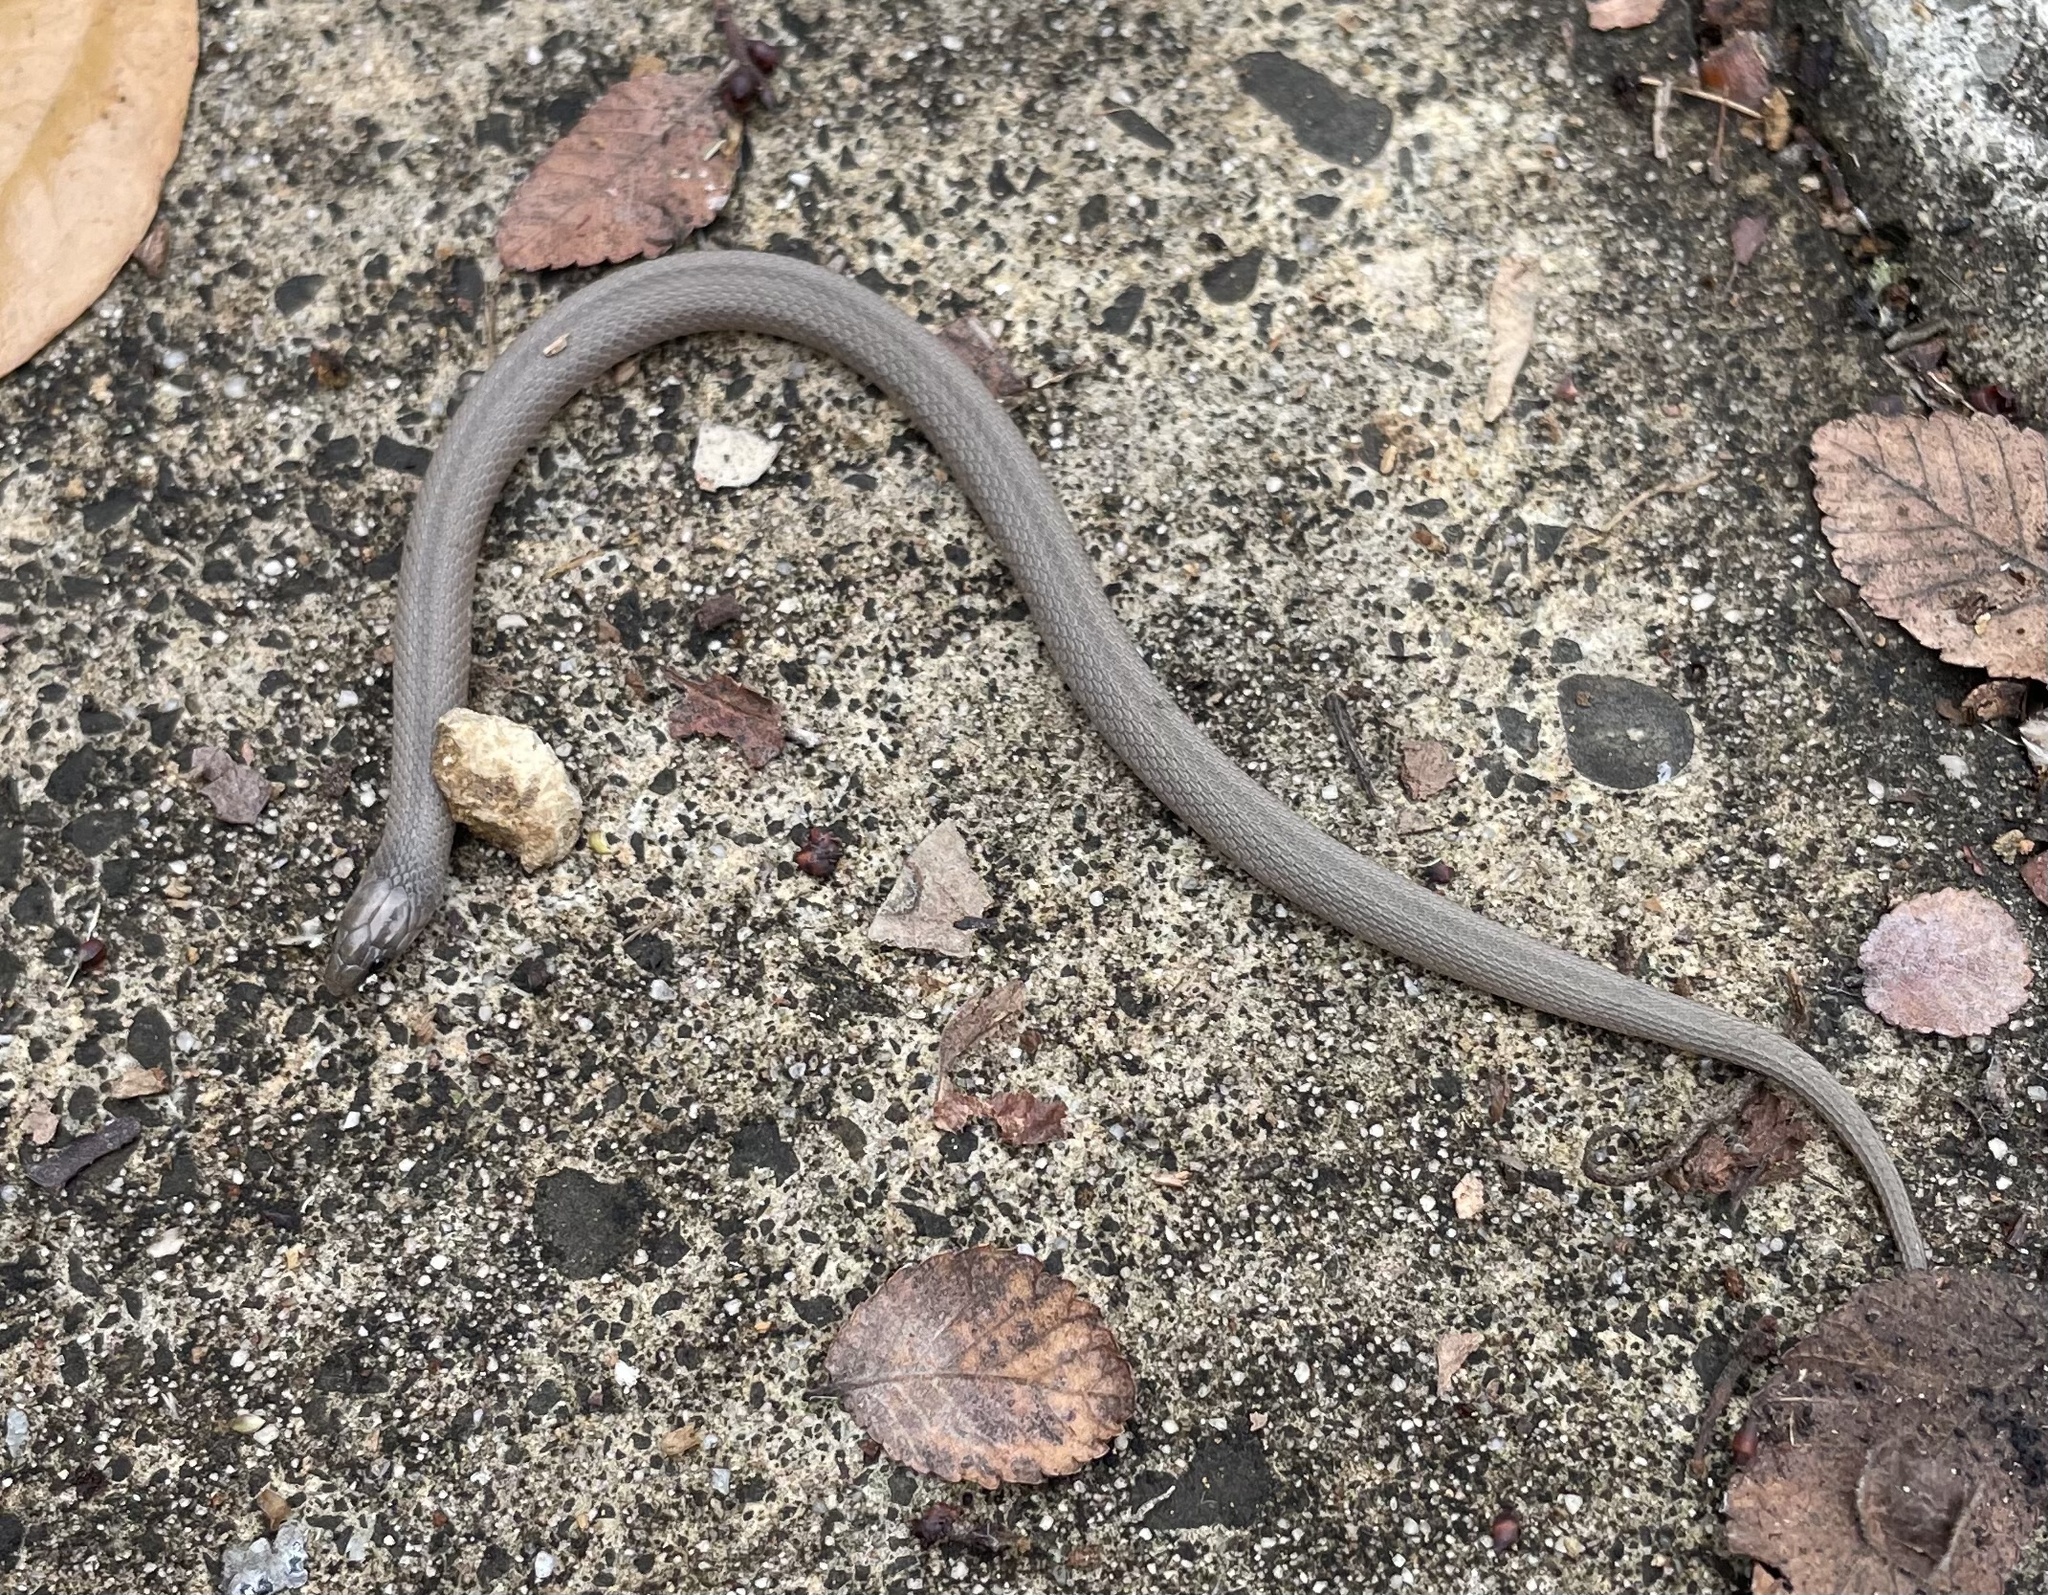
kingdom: Animalia
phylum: Chordata
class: Squamata
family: Colubridae
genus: Haldea
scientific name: Haldea striatula
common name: Rough earth snake
